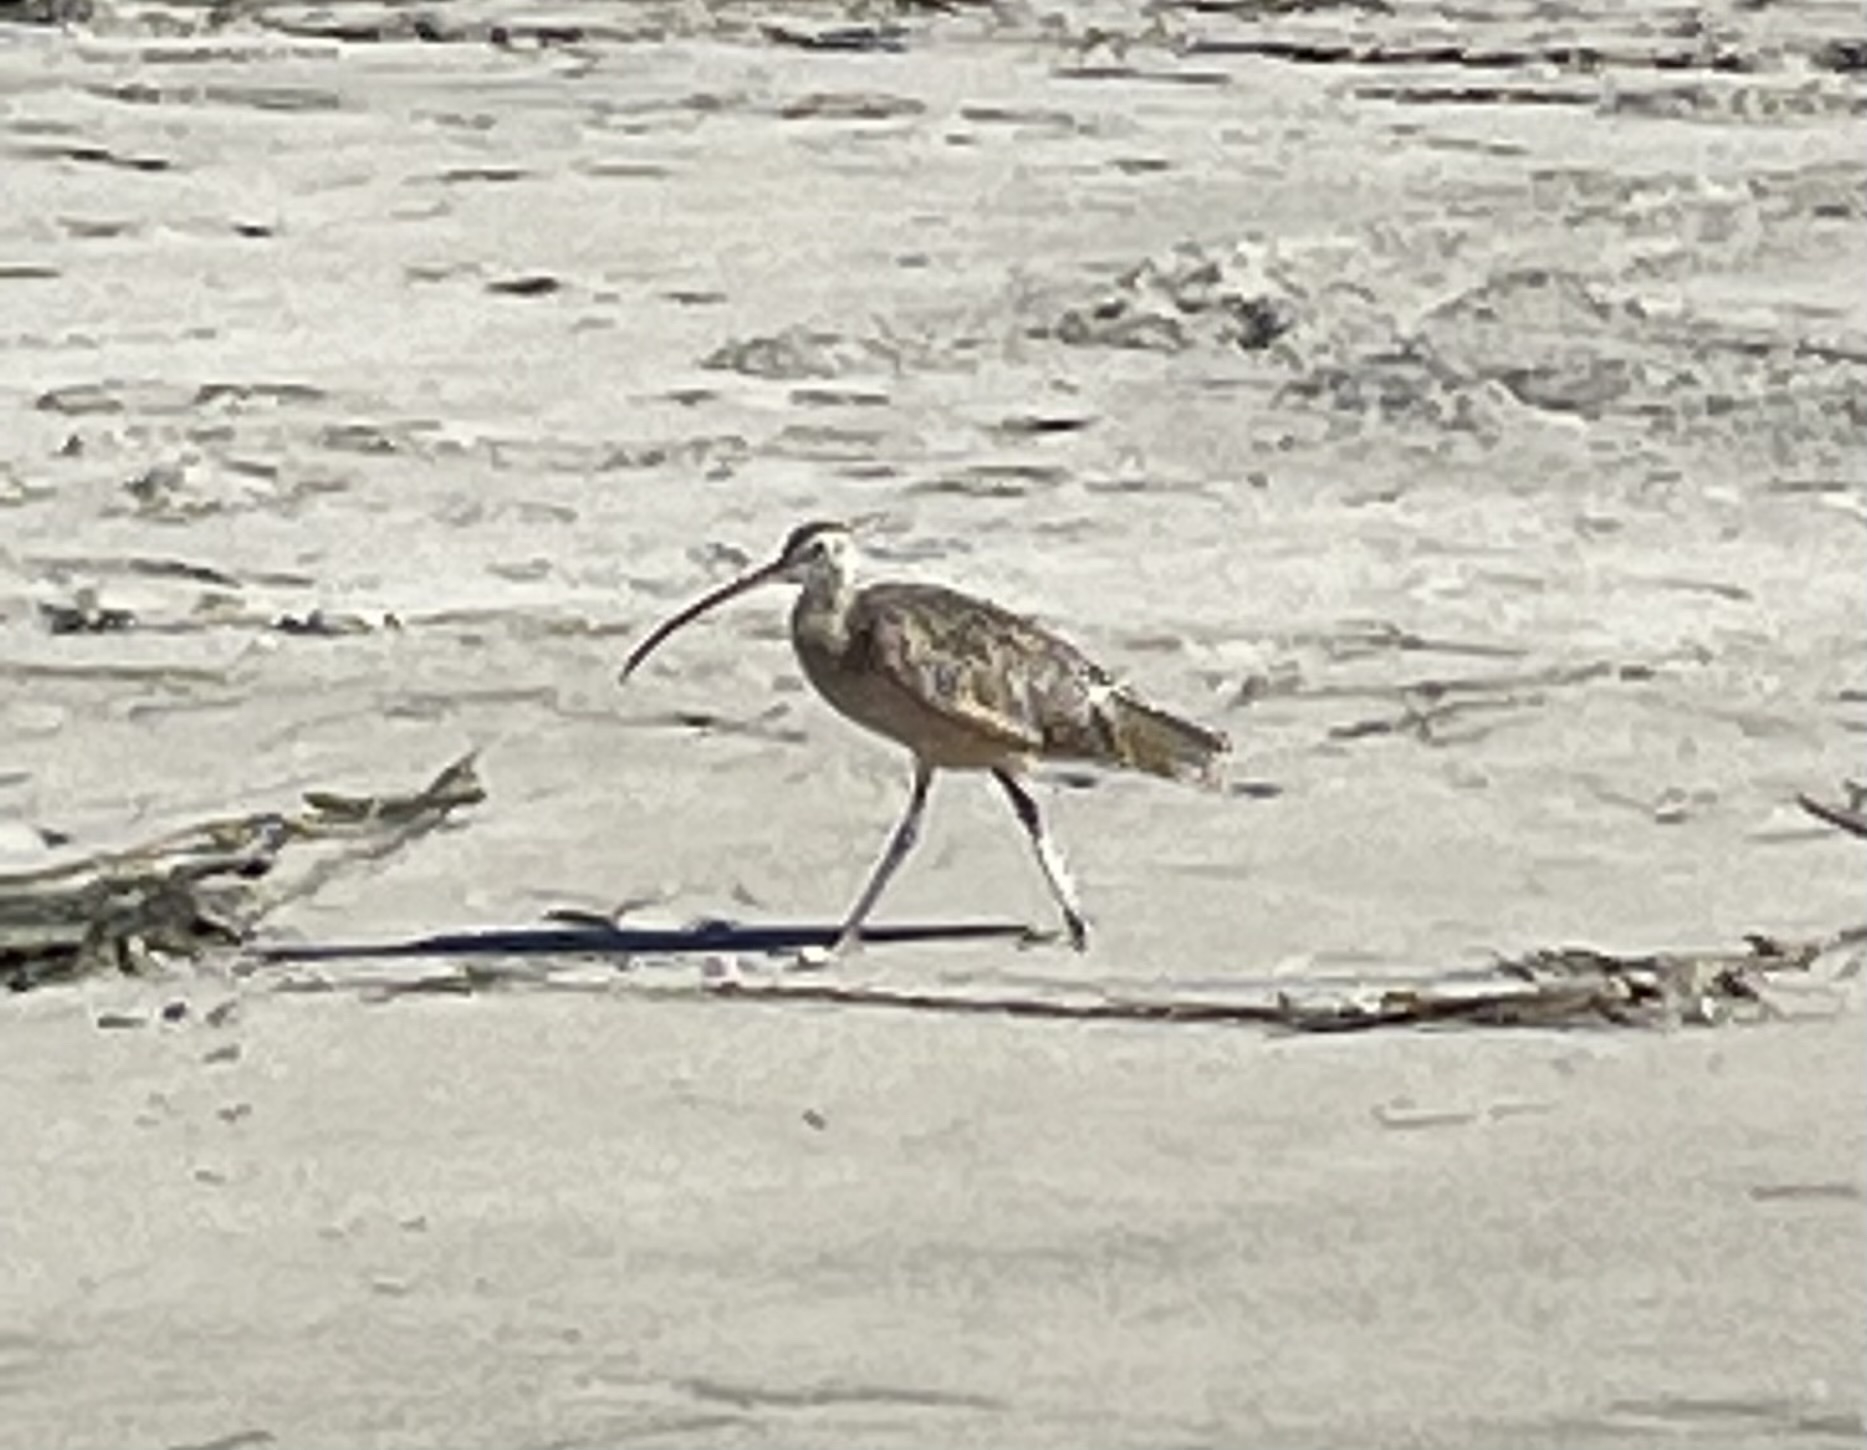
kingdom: Animalia
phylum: Chordata
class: Aves
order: Charadriiformes
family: Scolopacidae
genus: Numenius
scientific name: Numenius phaeopus
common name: Whimbrel
